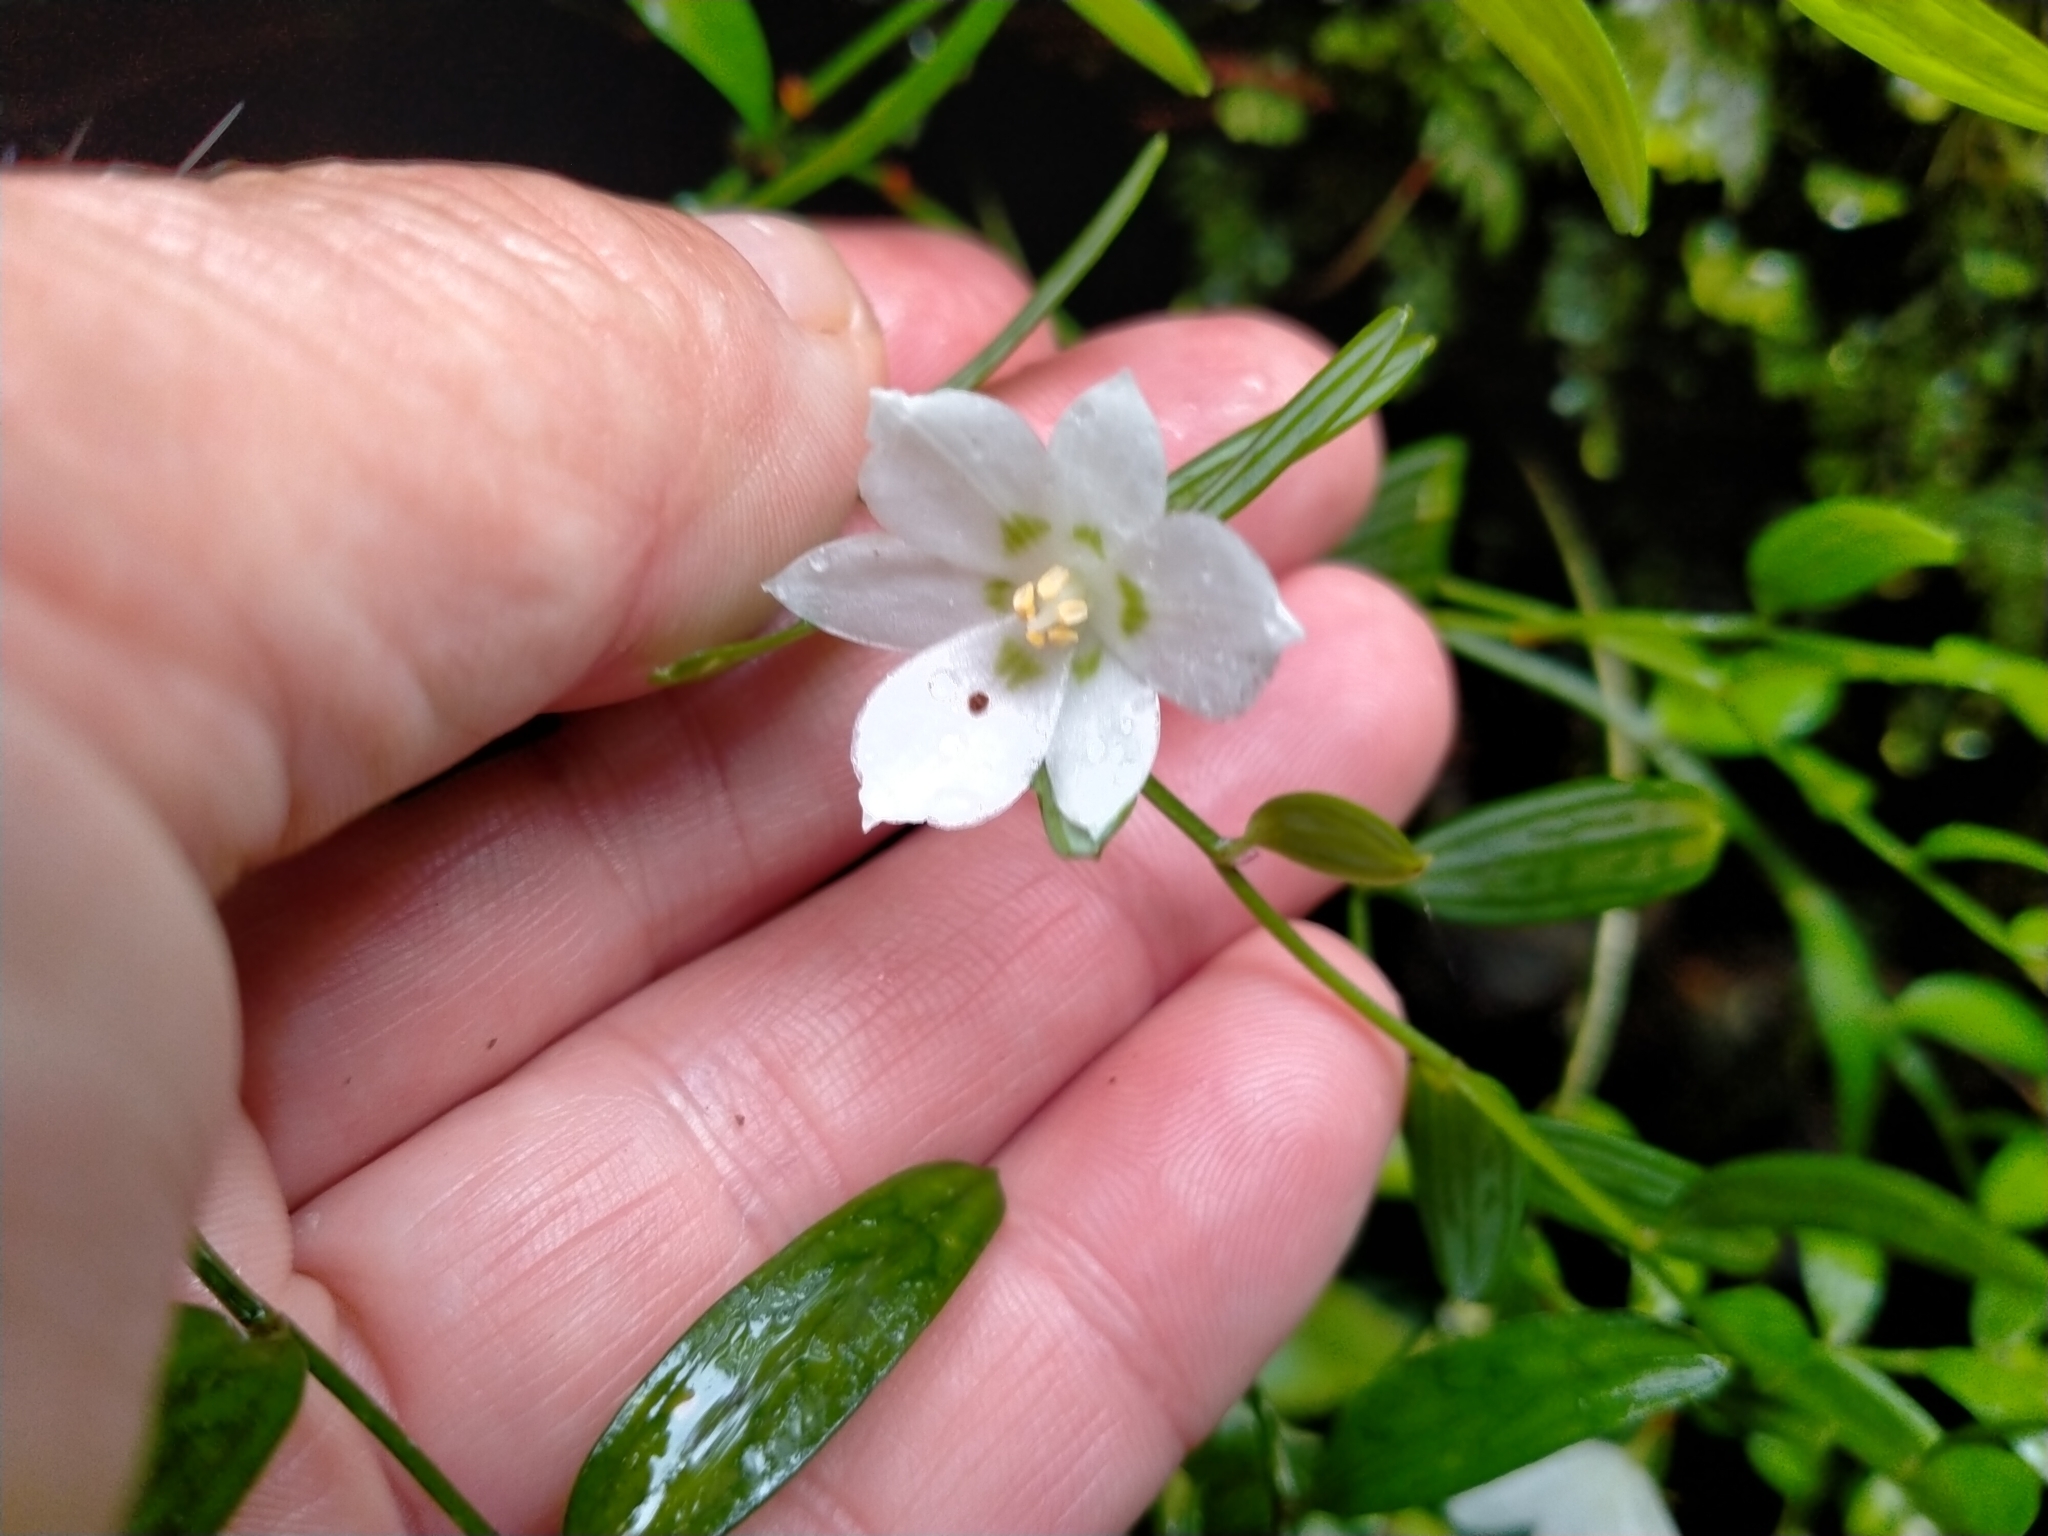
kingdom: Plantae
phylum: Tracheophyta
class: Liliopsida
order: Liliales
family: Alstroemeriaceae
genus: Luzuriaga
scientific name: Luzuriaga parviflora
